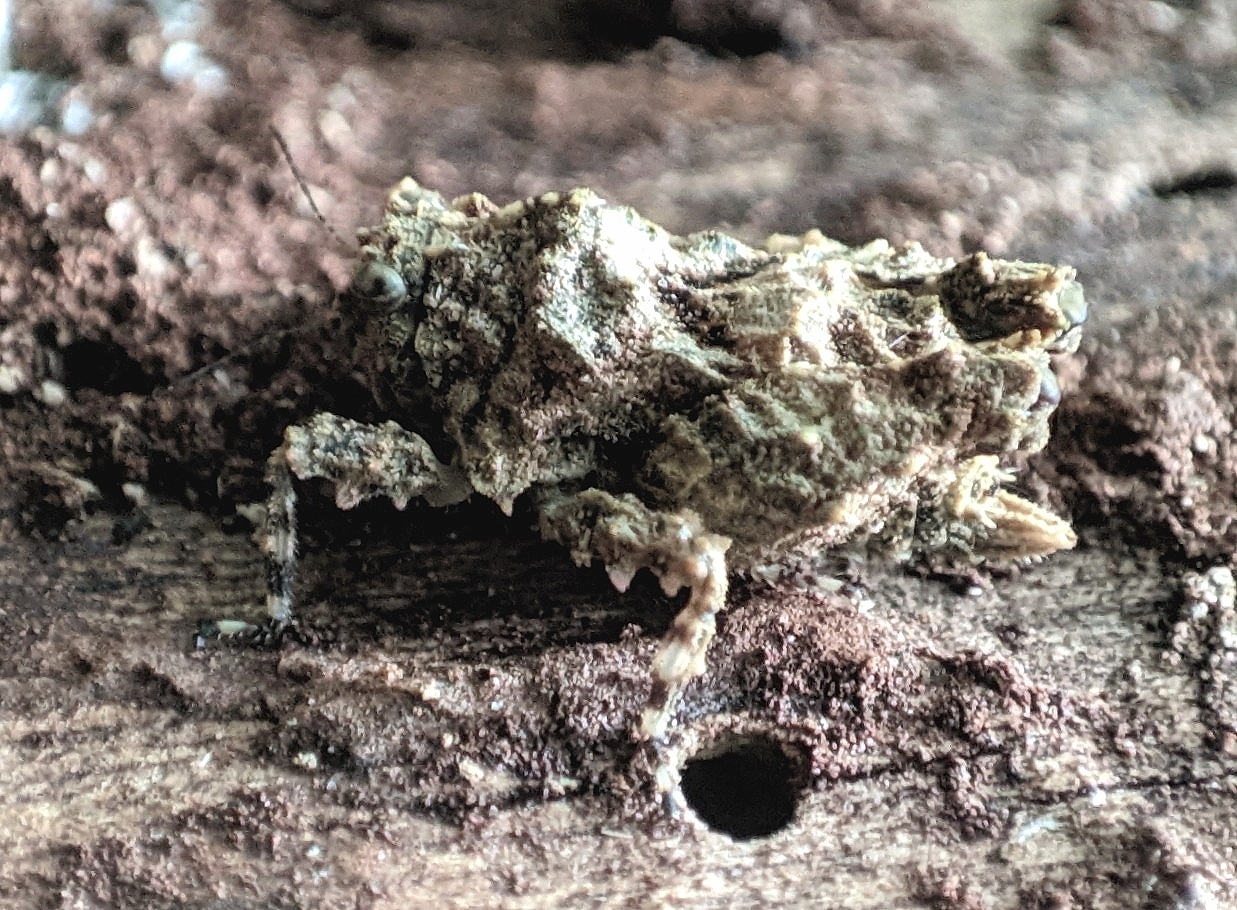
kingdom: Animalia
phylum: Arthropoda
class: Insecta
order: Orthoptera
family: Tetrigidae
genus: Tettilobus
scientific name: Tettilobus trishula
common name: Shiva's pygmy trishula
